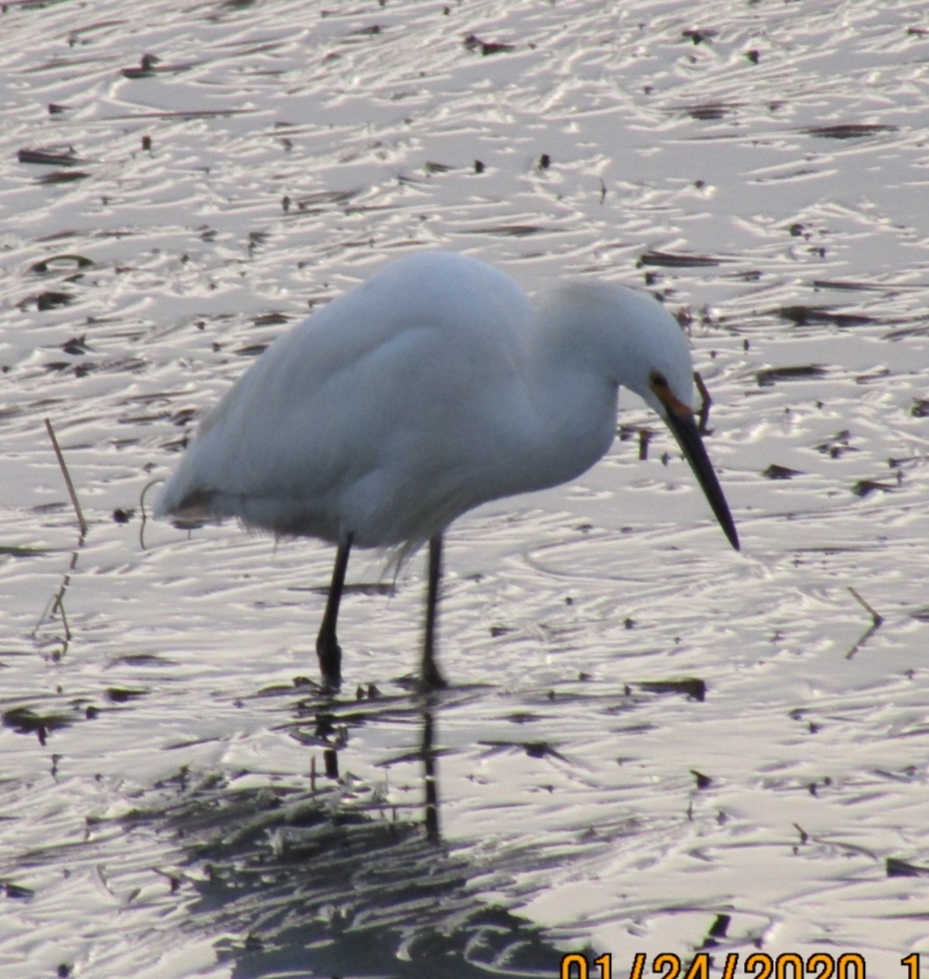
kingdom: Animalia
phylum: Chordata
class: Aves
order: Pelecaniformes
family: Ardeidae
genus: Egretta
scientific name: Egretta thula
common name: Snowy egret
